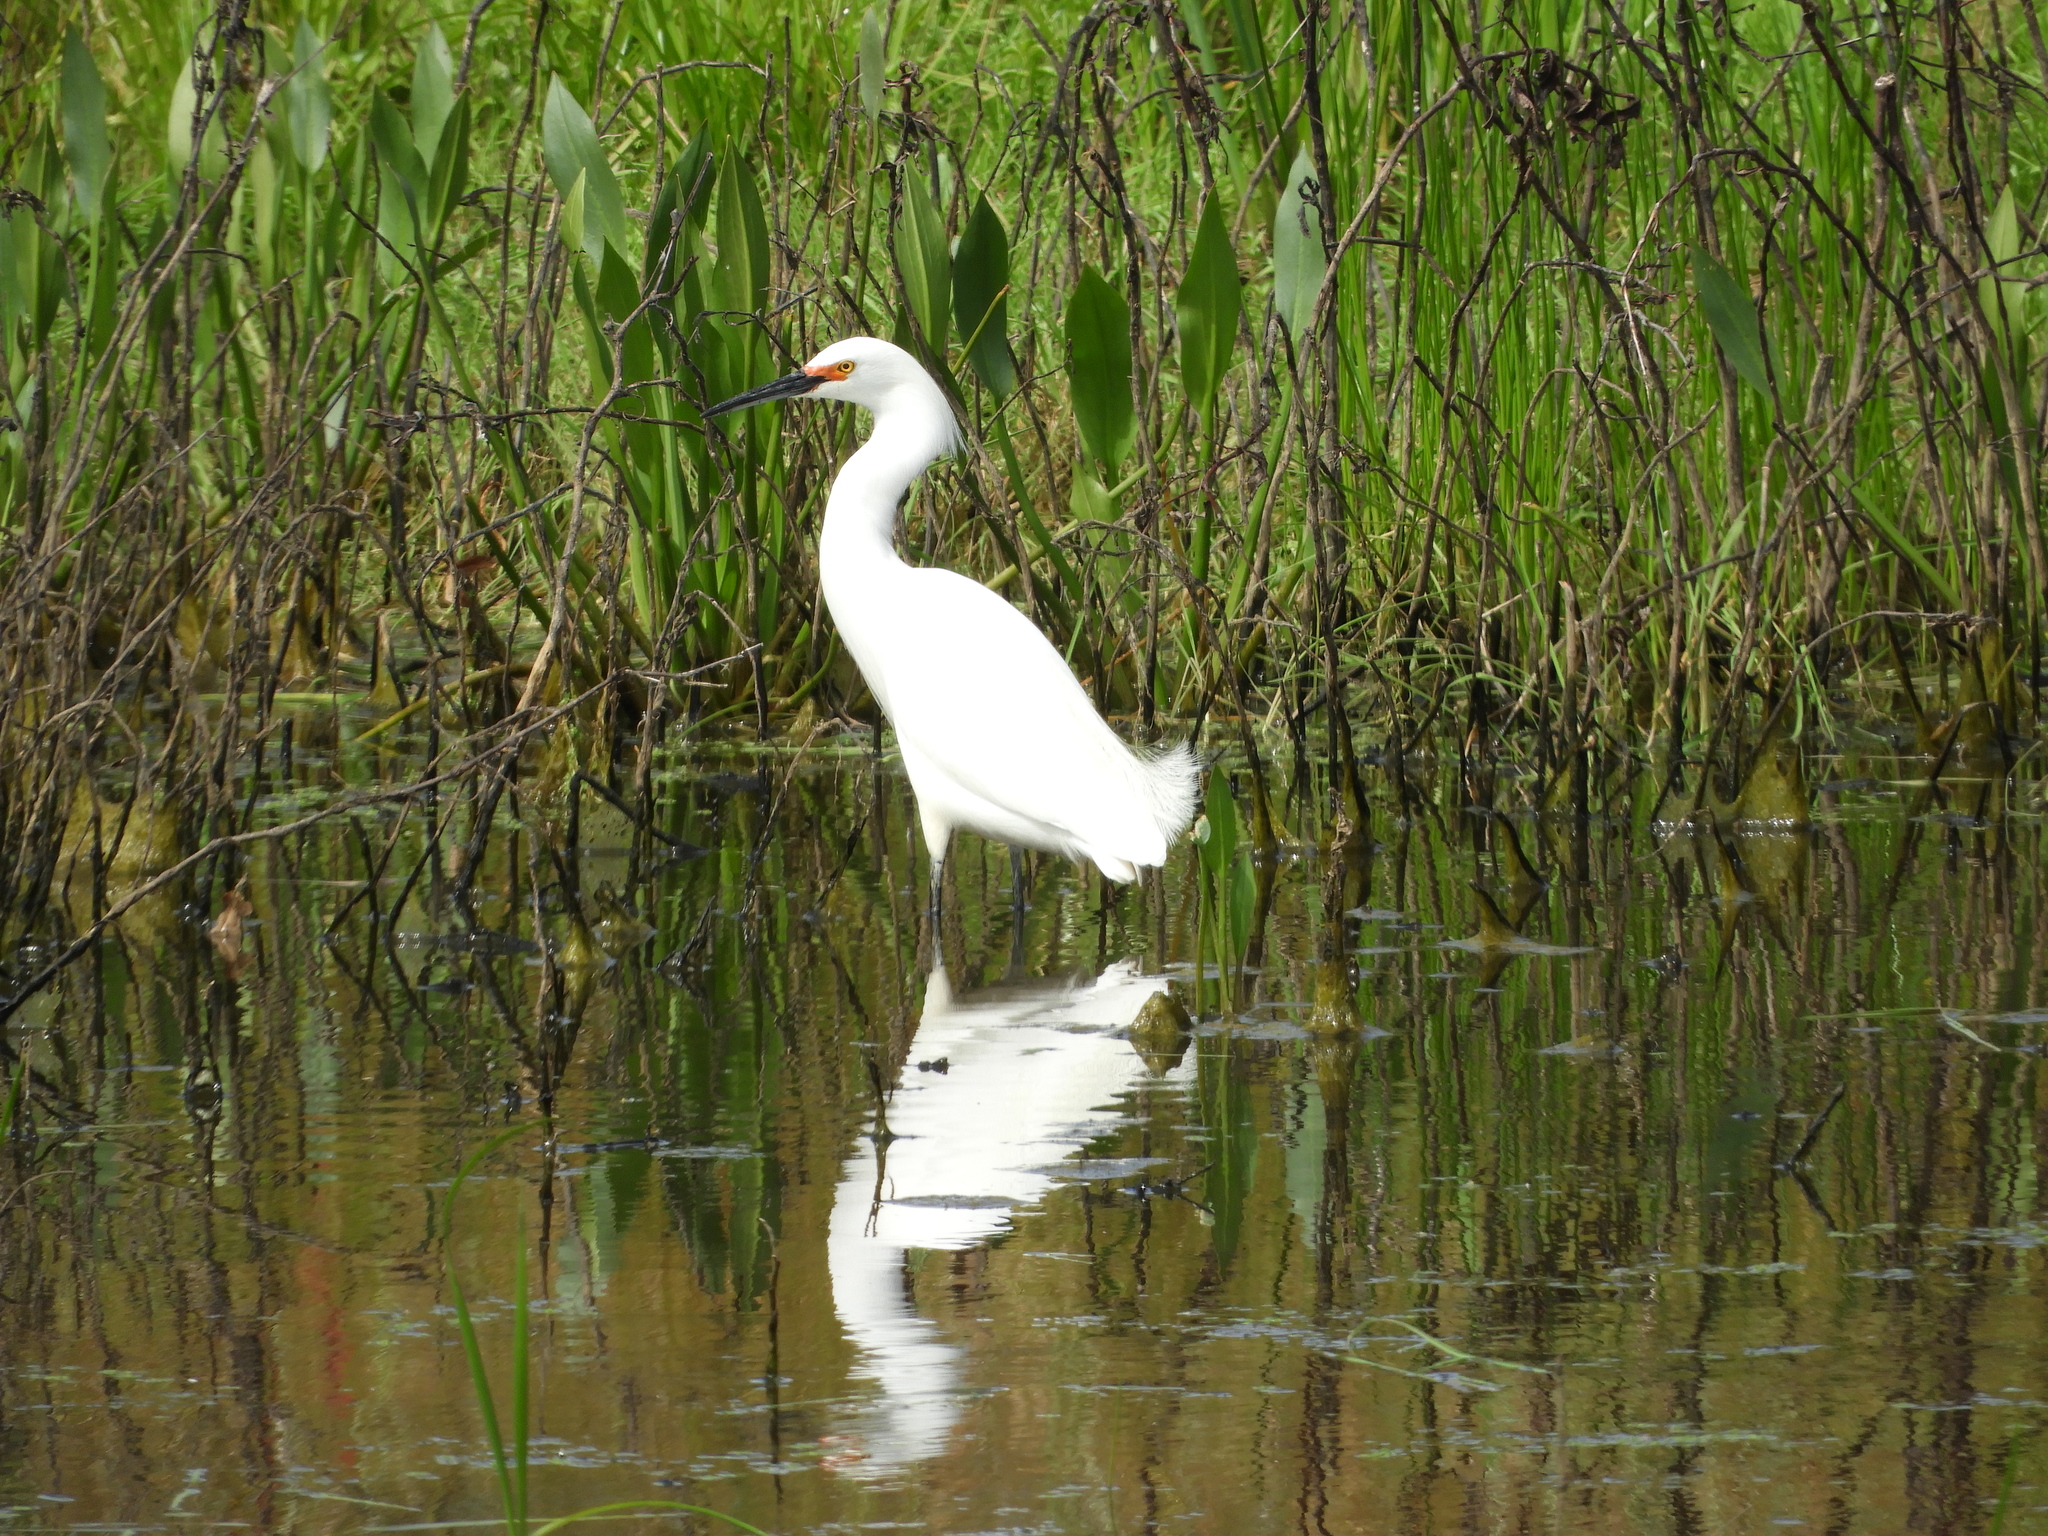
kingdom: Animalia
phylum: Chordata
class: Aves
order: Pelecaniformes
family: Ardeidae
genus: Egretta
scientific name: Egretta thula
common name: Snowy egret
